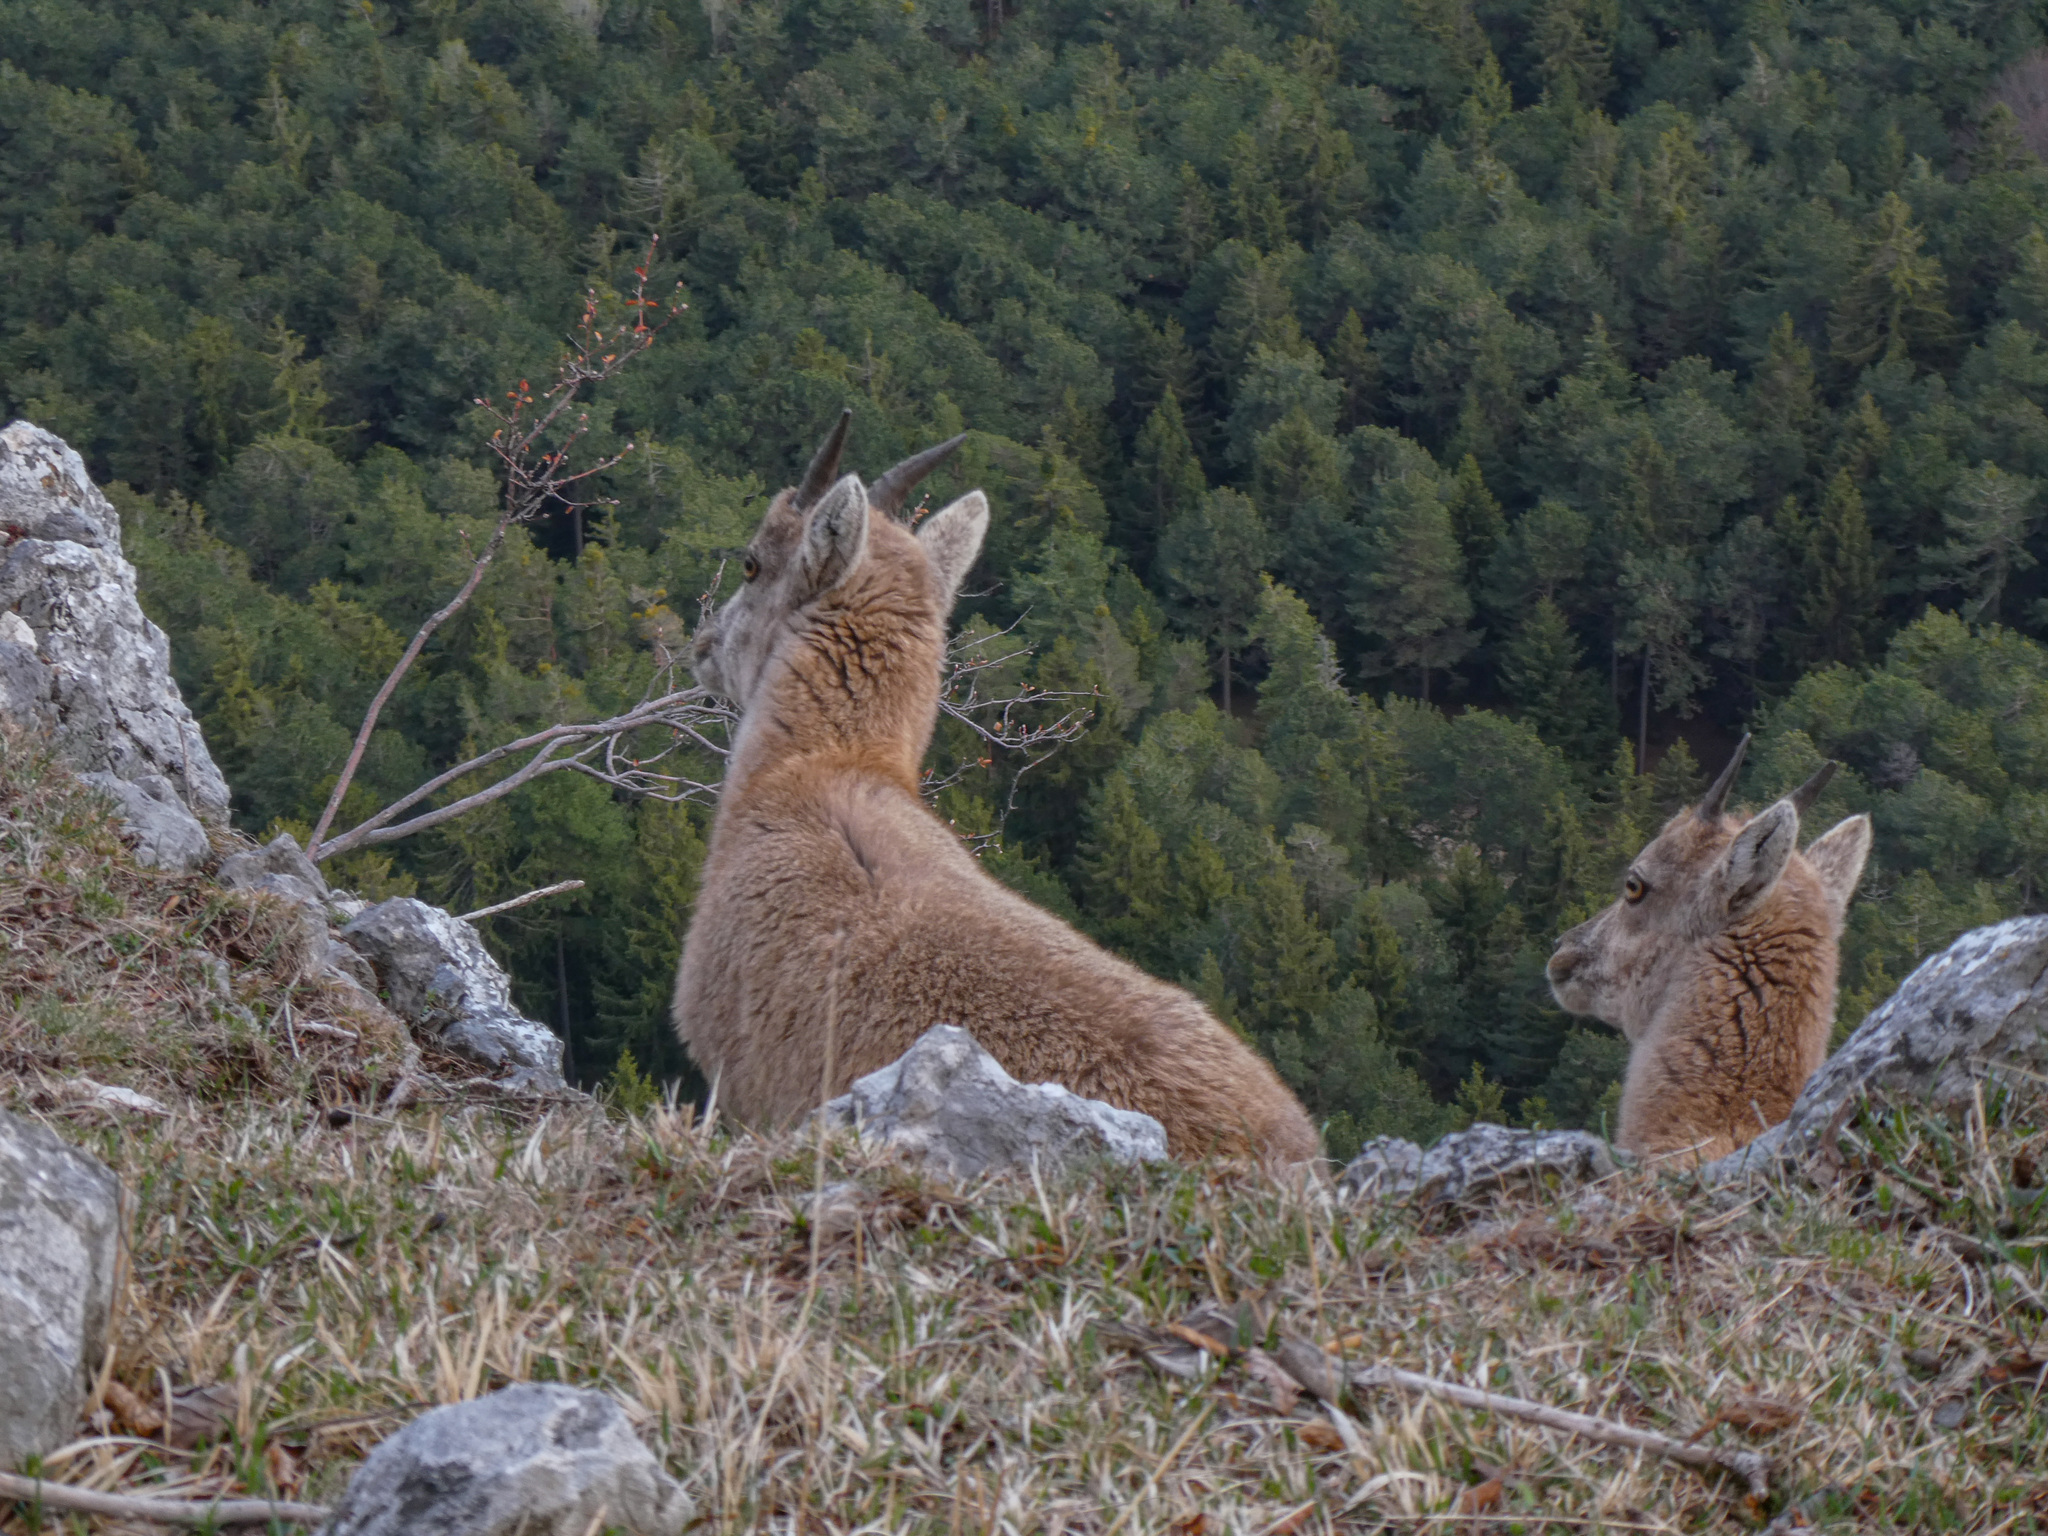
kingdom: Animalia
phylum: Chordata
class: Mammalia
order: Artiodactyla
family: Bovidae
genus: Capra
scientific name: Capra ibex
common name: Alpine ibex
